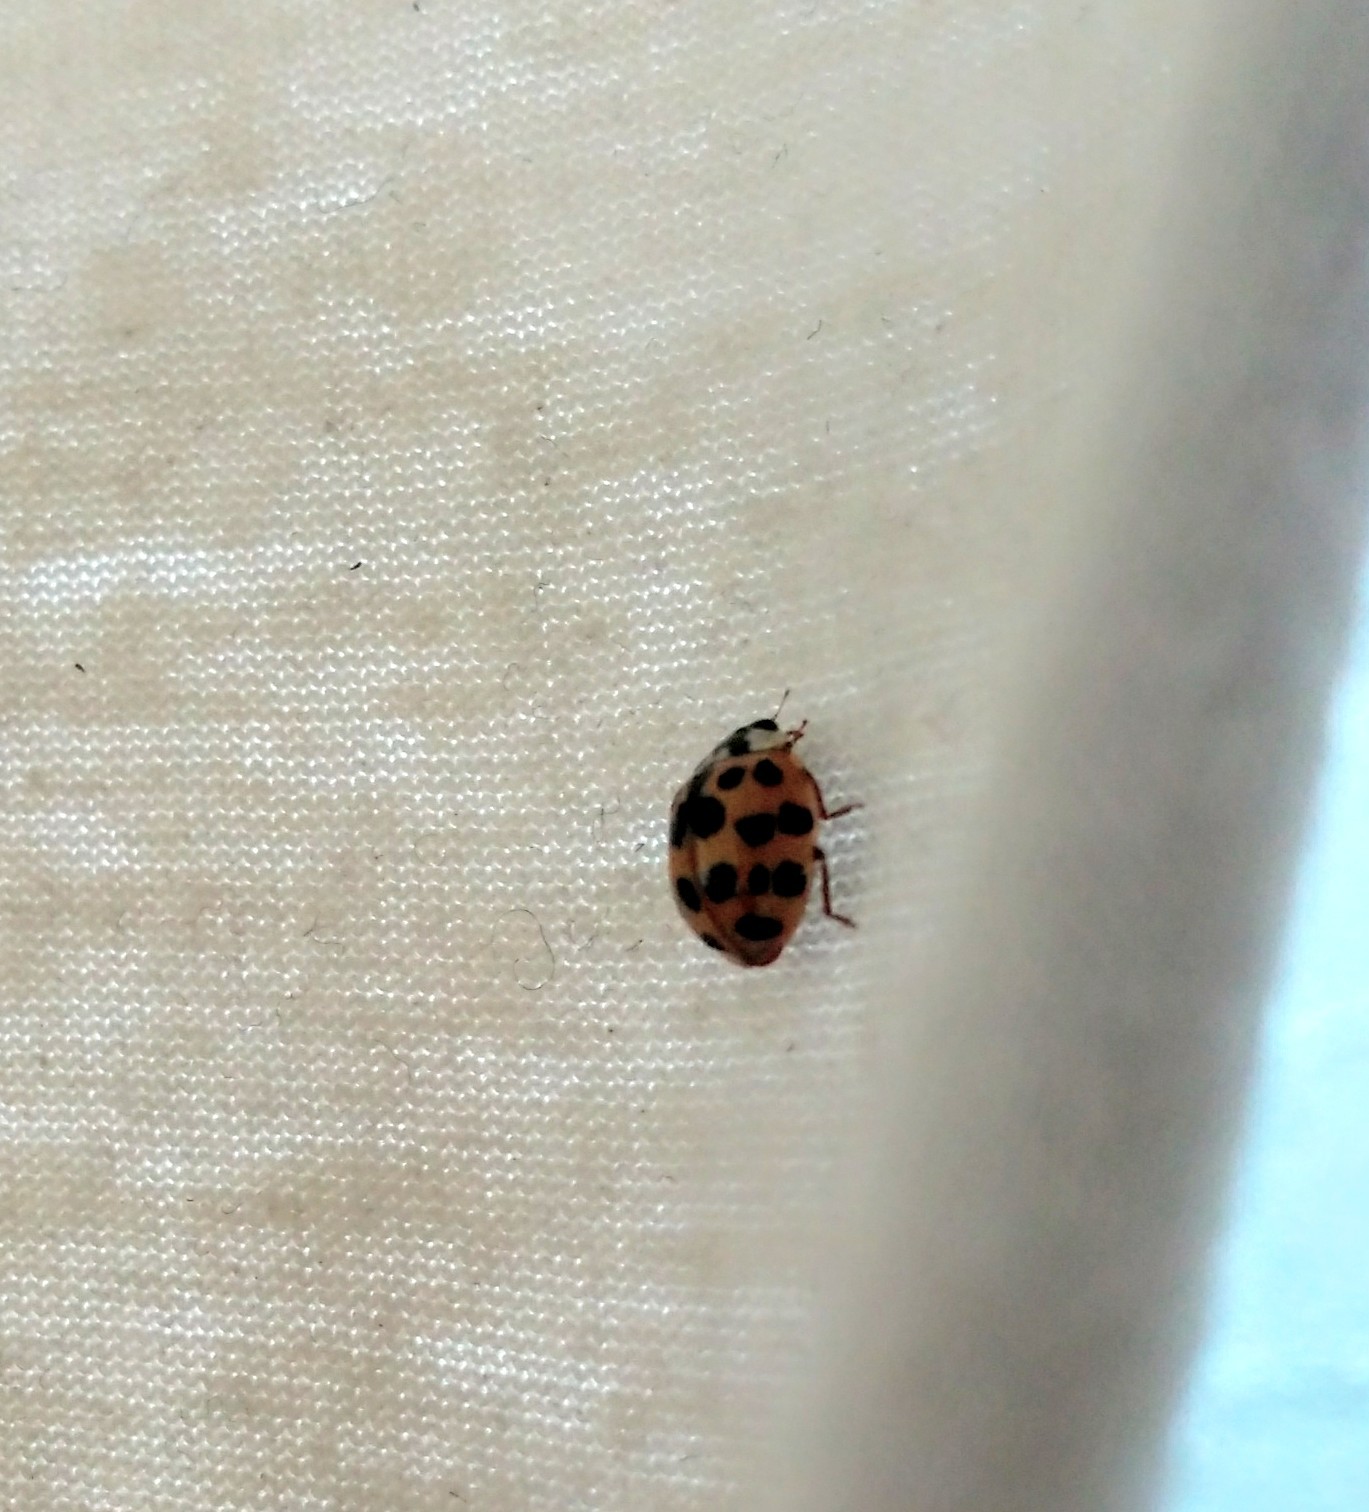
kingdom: Animalia
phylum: Arthropoda
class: Insecta
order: Coleoptera
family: Coccinellidae
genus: Harmonia
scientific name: Harmonia axyridis
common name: Harlequin ladybird
